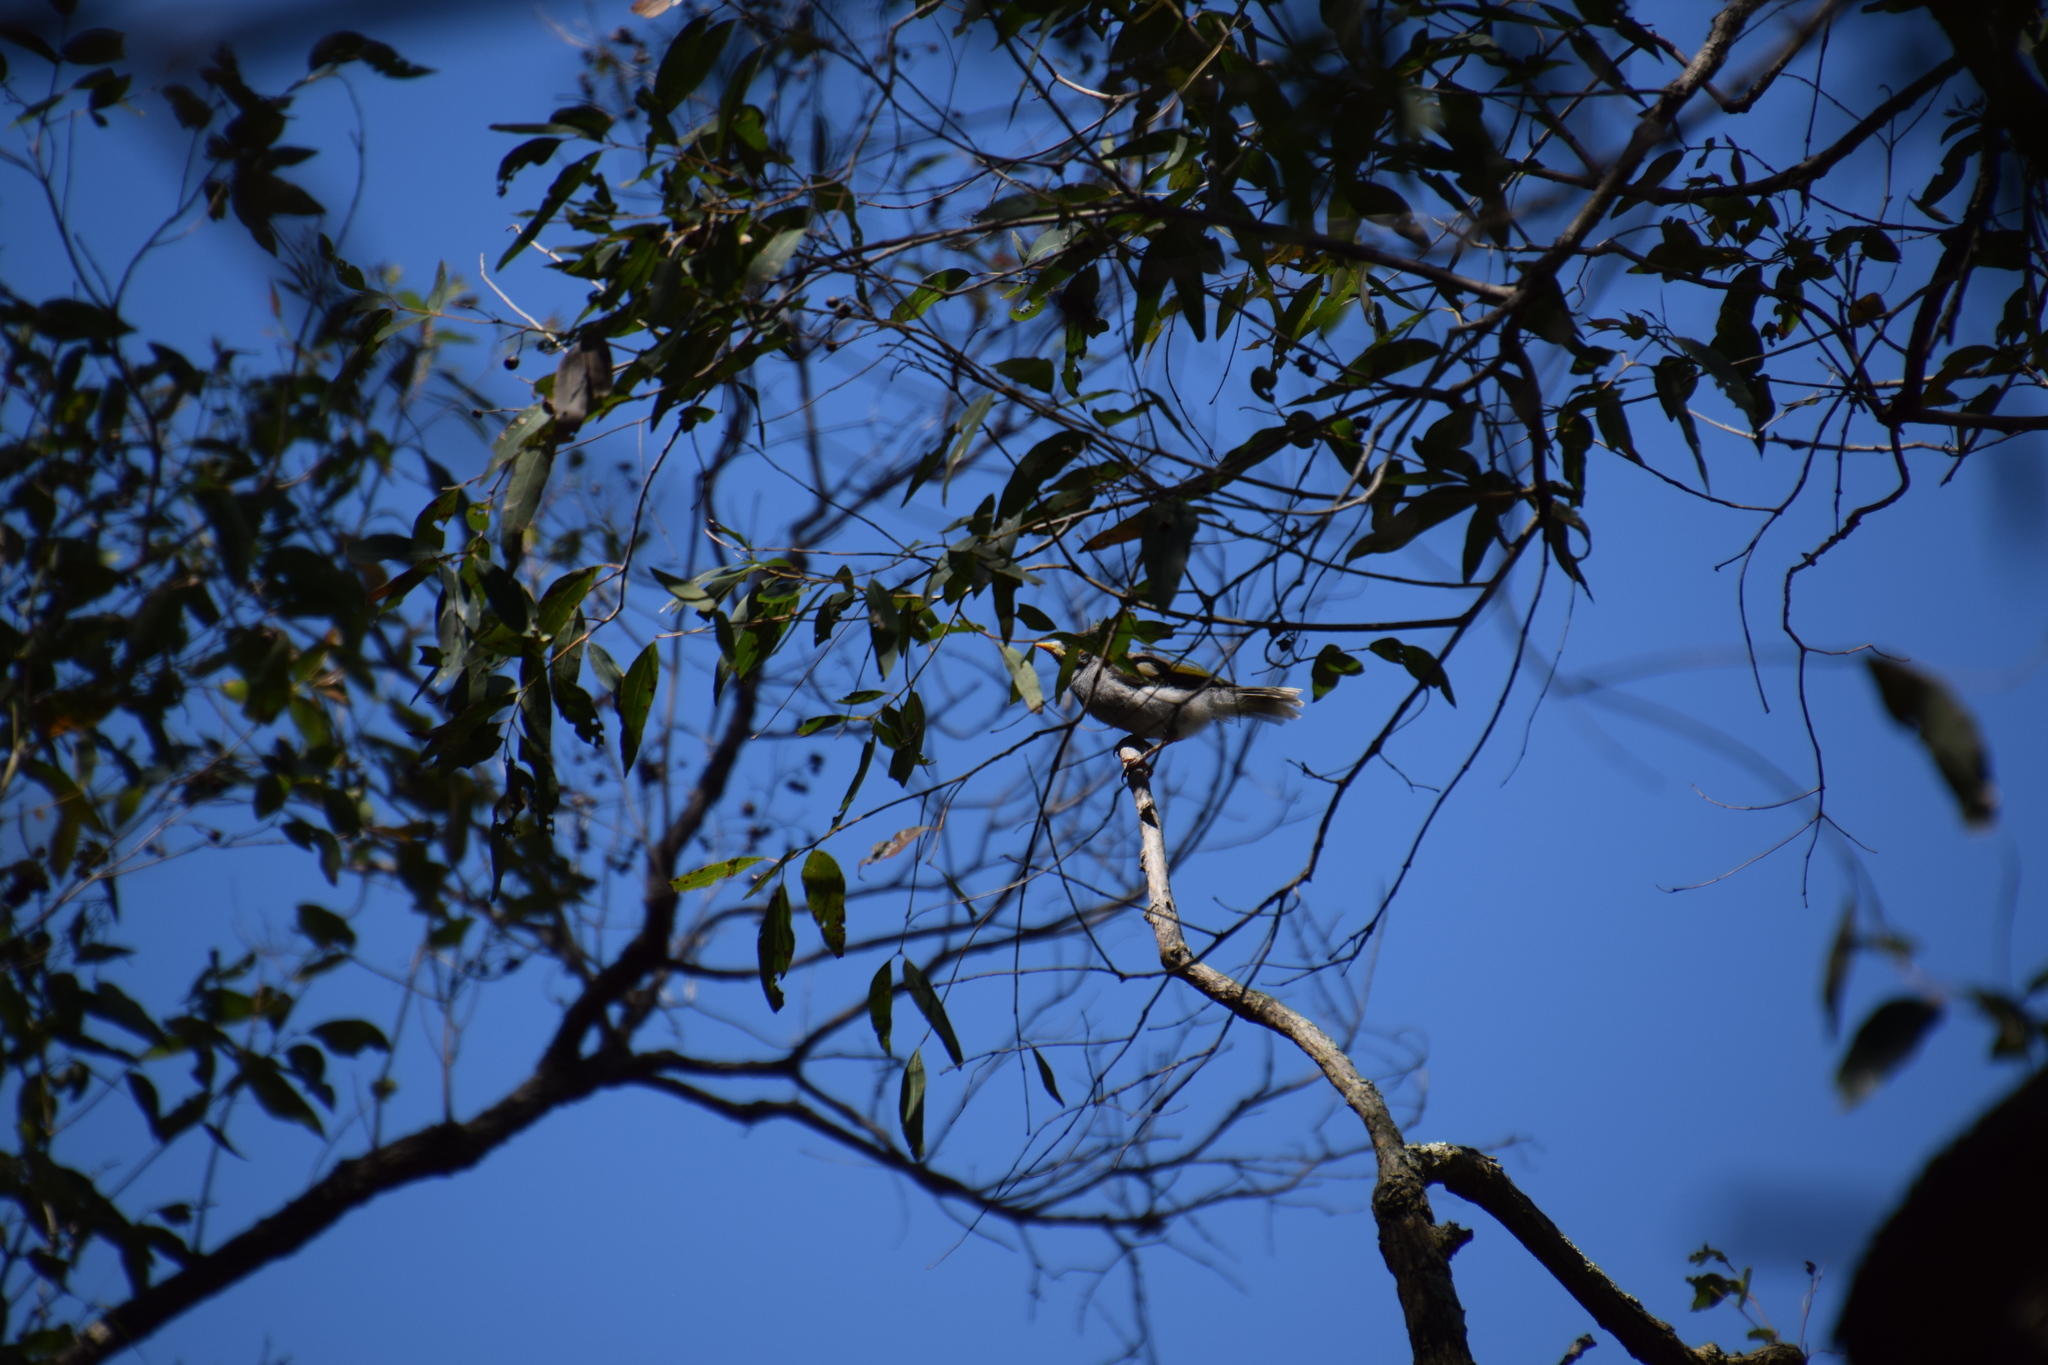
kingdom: Animalia
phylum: Chordata
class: Aves
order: Passeriformes
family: Meliphagidae
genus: Manorina
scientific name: Manorina melanocephala
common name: Noisy miner
